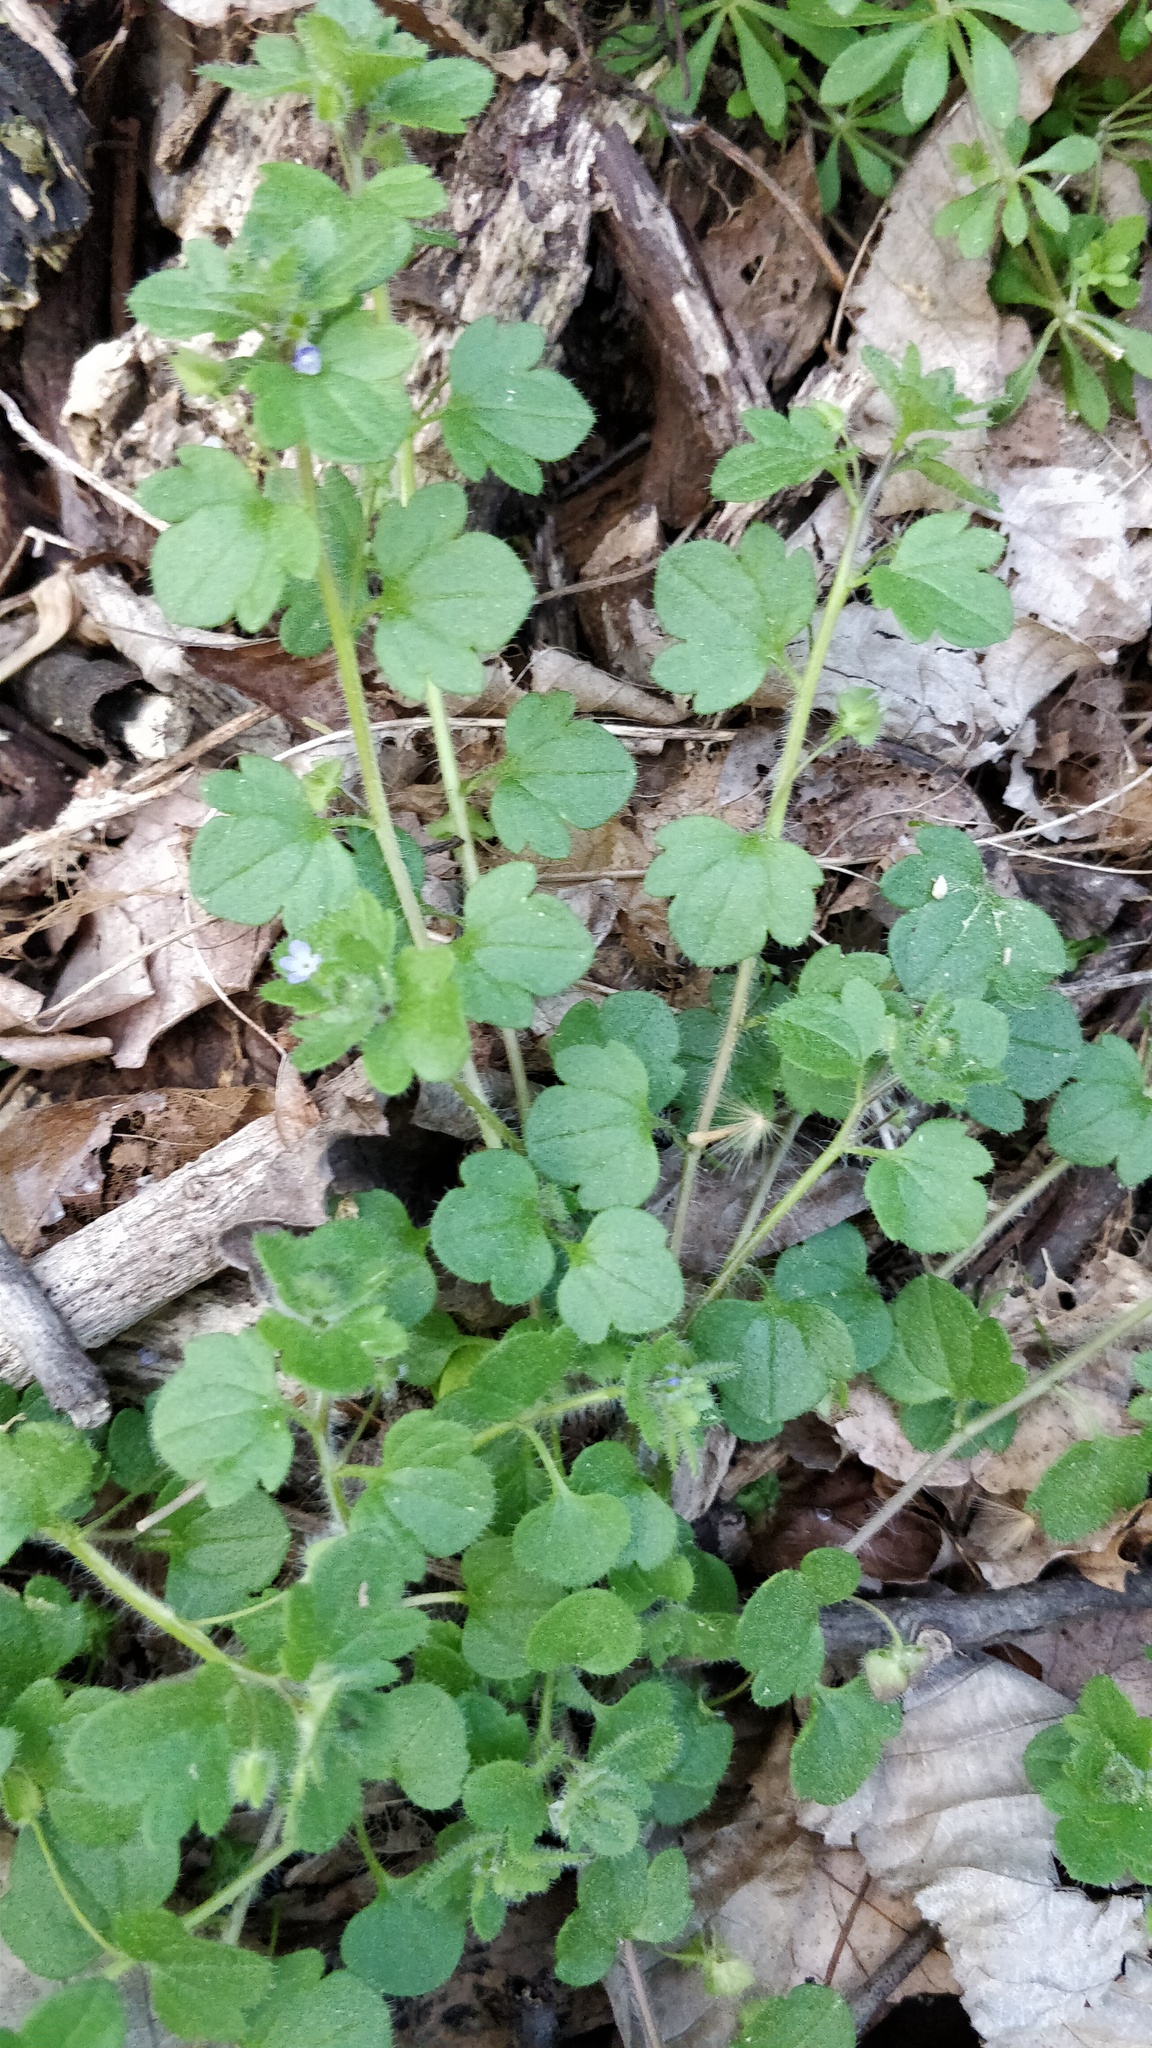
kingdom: Plantae
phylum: Tracheophyta
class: Magnoliopsida
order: Lamiales
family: Plantaginaceae
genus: Veronica
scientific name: Veronica hederifolia
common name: Ivy-leaved speedwell
